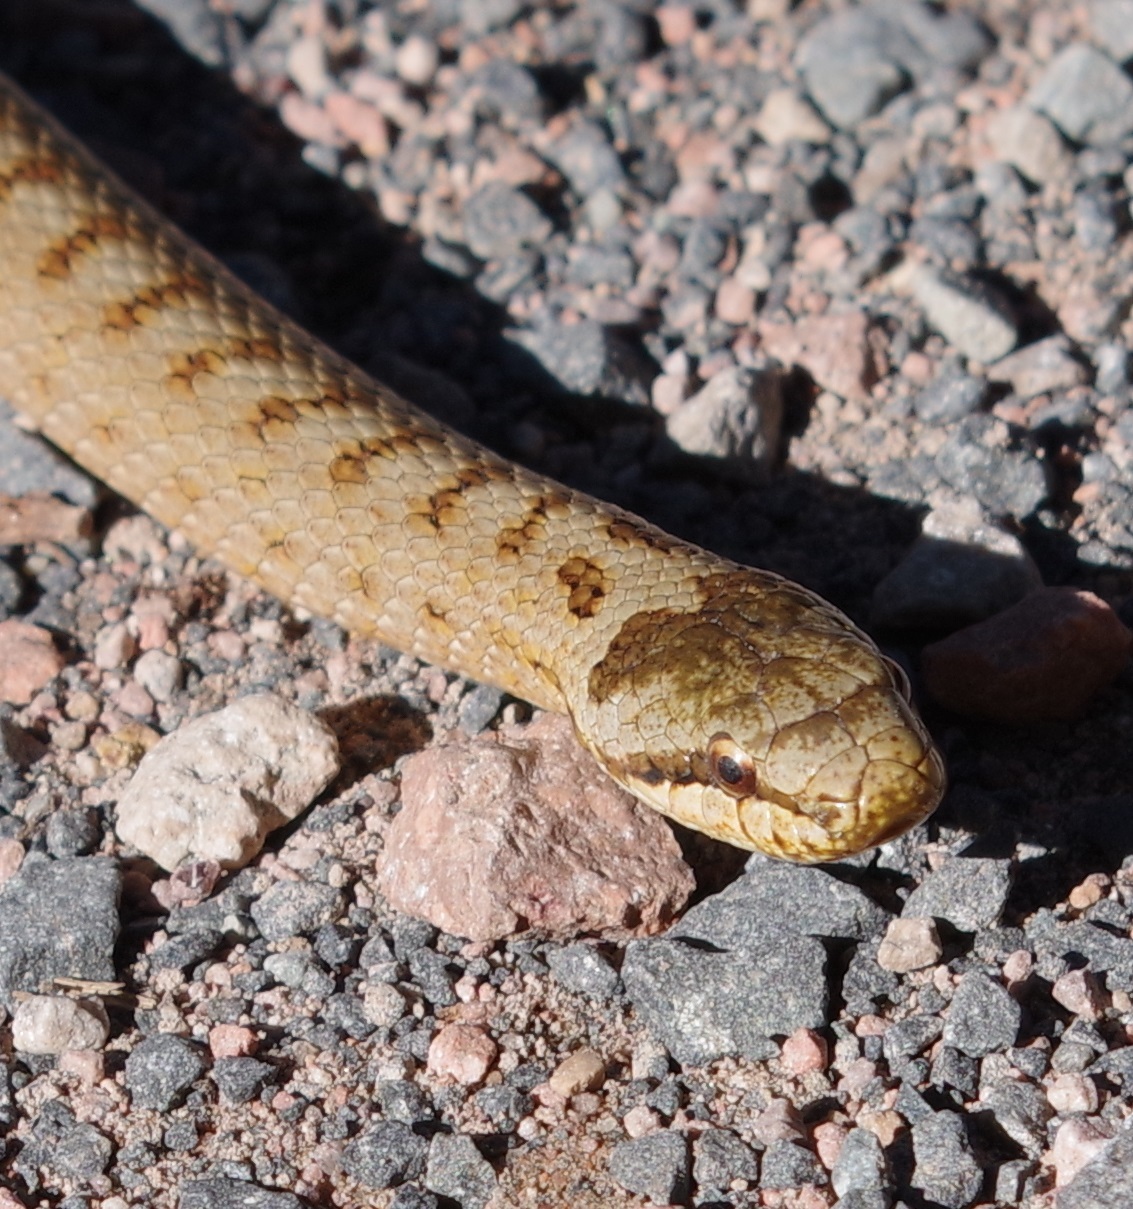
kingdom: Animalia
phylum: Chordata
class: Squamata
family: Colubridae
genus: Coronella
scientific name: Coronella austriaca
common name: Smooth snake
